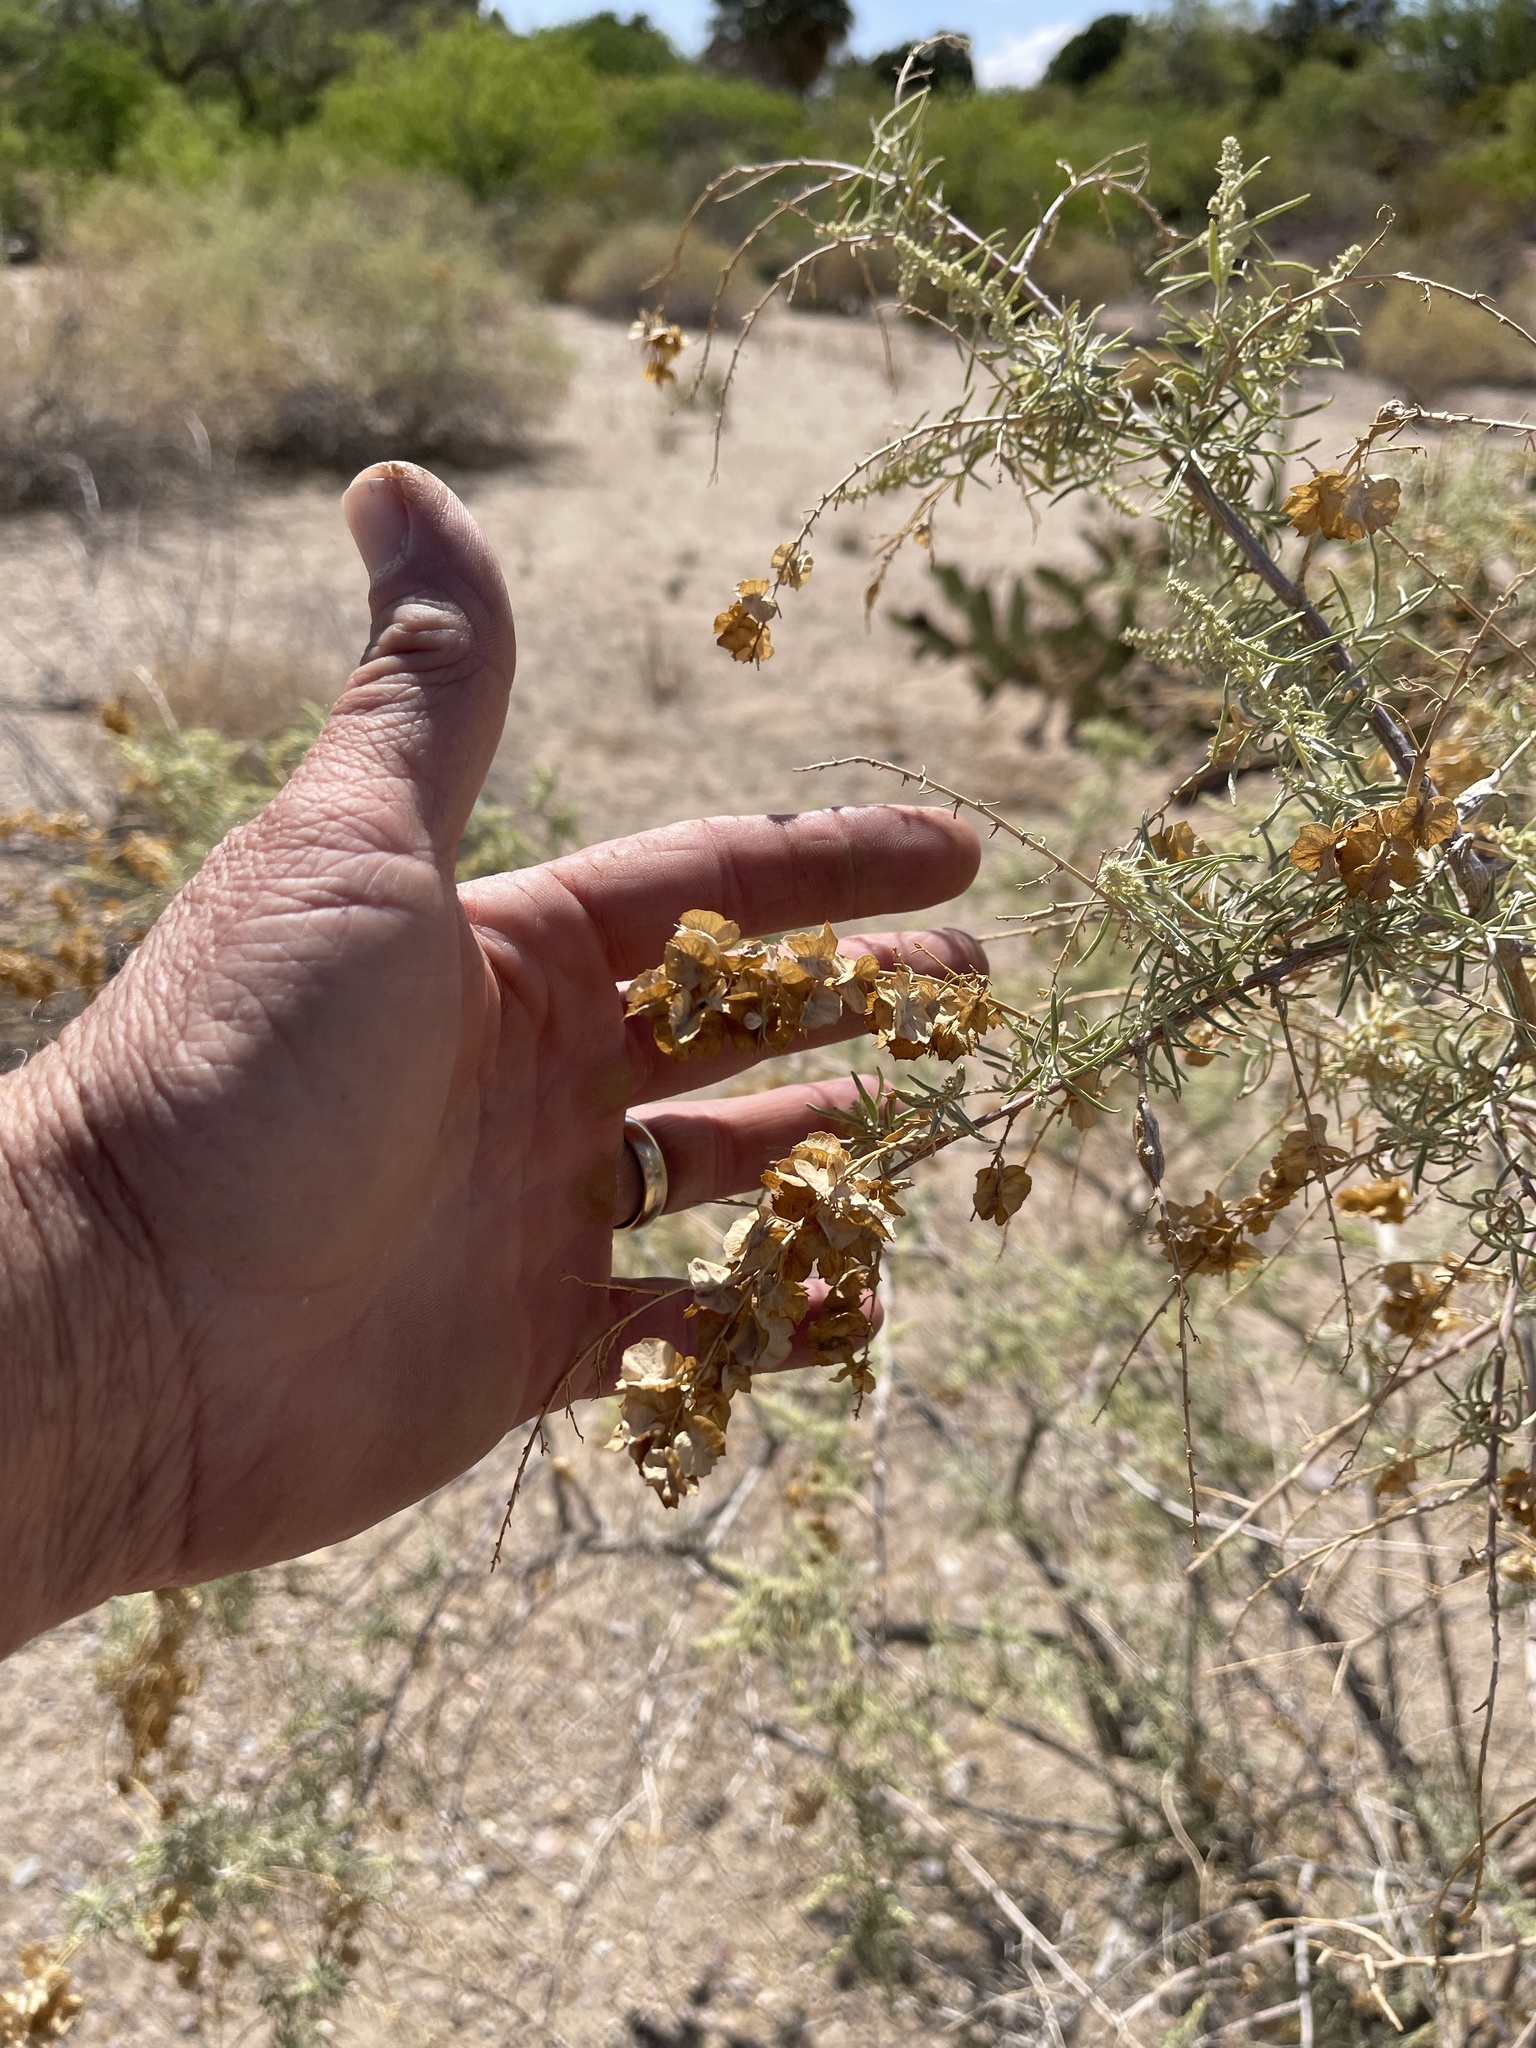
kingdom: Plantae
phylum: Tracheophyta
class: Magnoliopsida
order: Caryophyllales
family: Amaranthaceae
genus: Atriplex
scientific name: Atriplex canescens
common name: Four-wing saltbush
